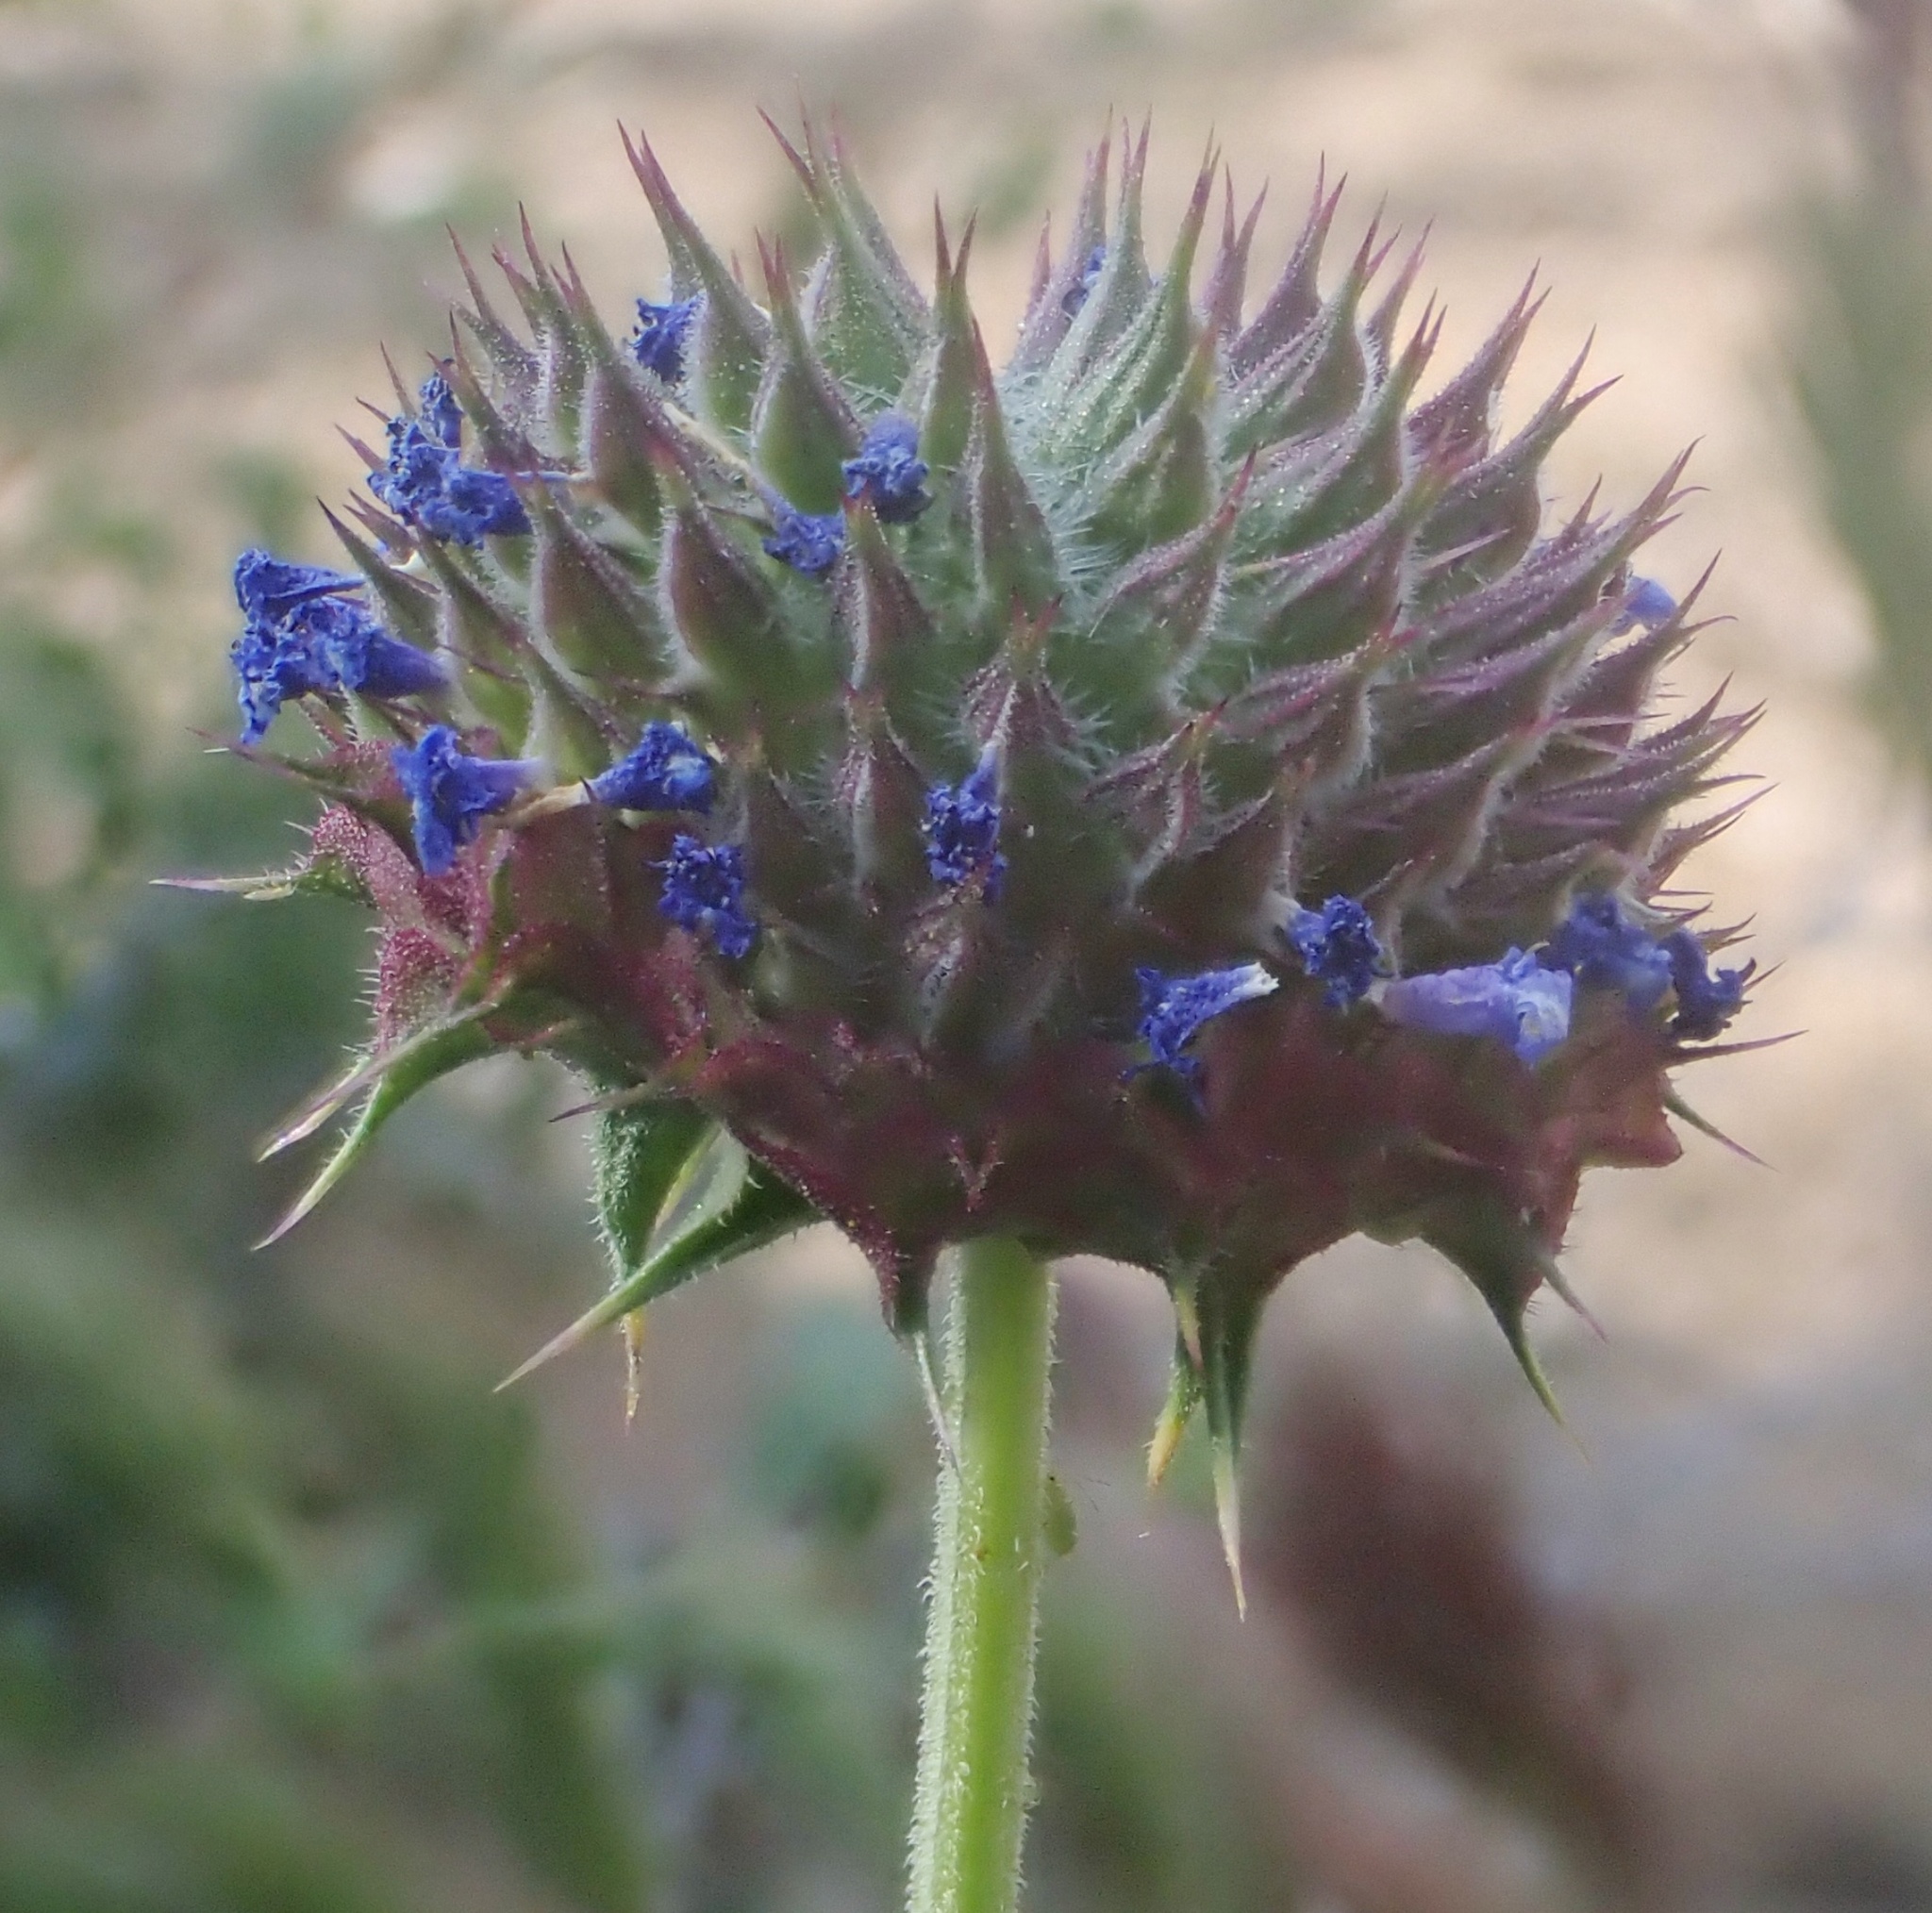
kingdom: Plantae
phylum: Tracheophyta
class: Magnoliopsida
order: Lamiales
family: Lamiaceae
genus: Salvia
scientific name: Salvia columbariae
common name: Chia
